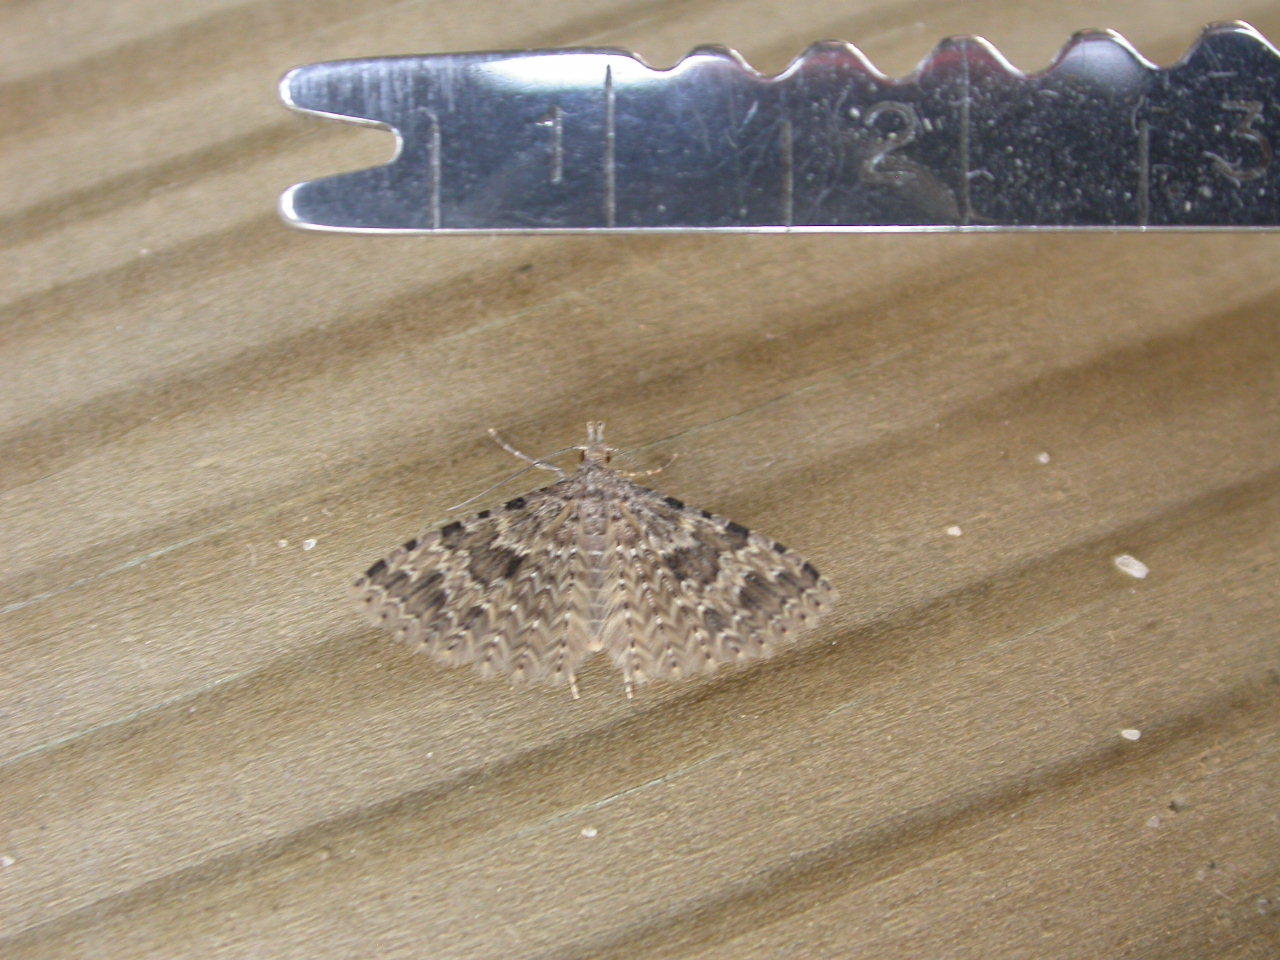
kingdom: Animalia
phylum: Arthropoda
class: Insecta
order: Lepidoptera
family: Alucitidae
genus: Alucita
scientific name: Alucita hexadactyla
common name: Twenty-plume moth
